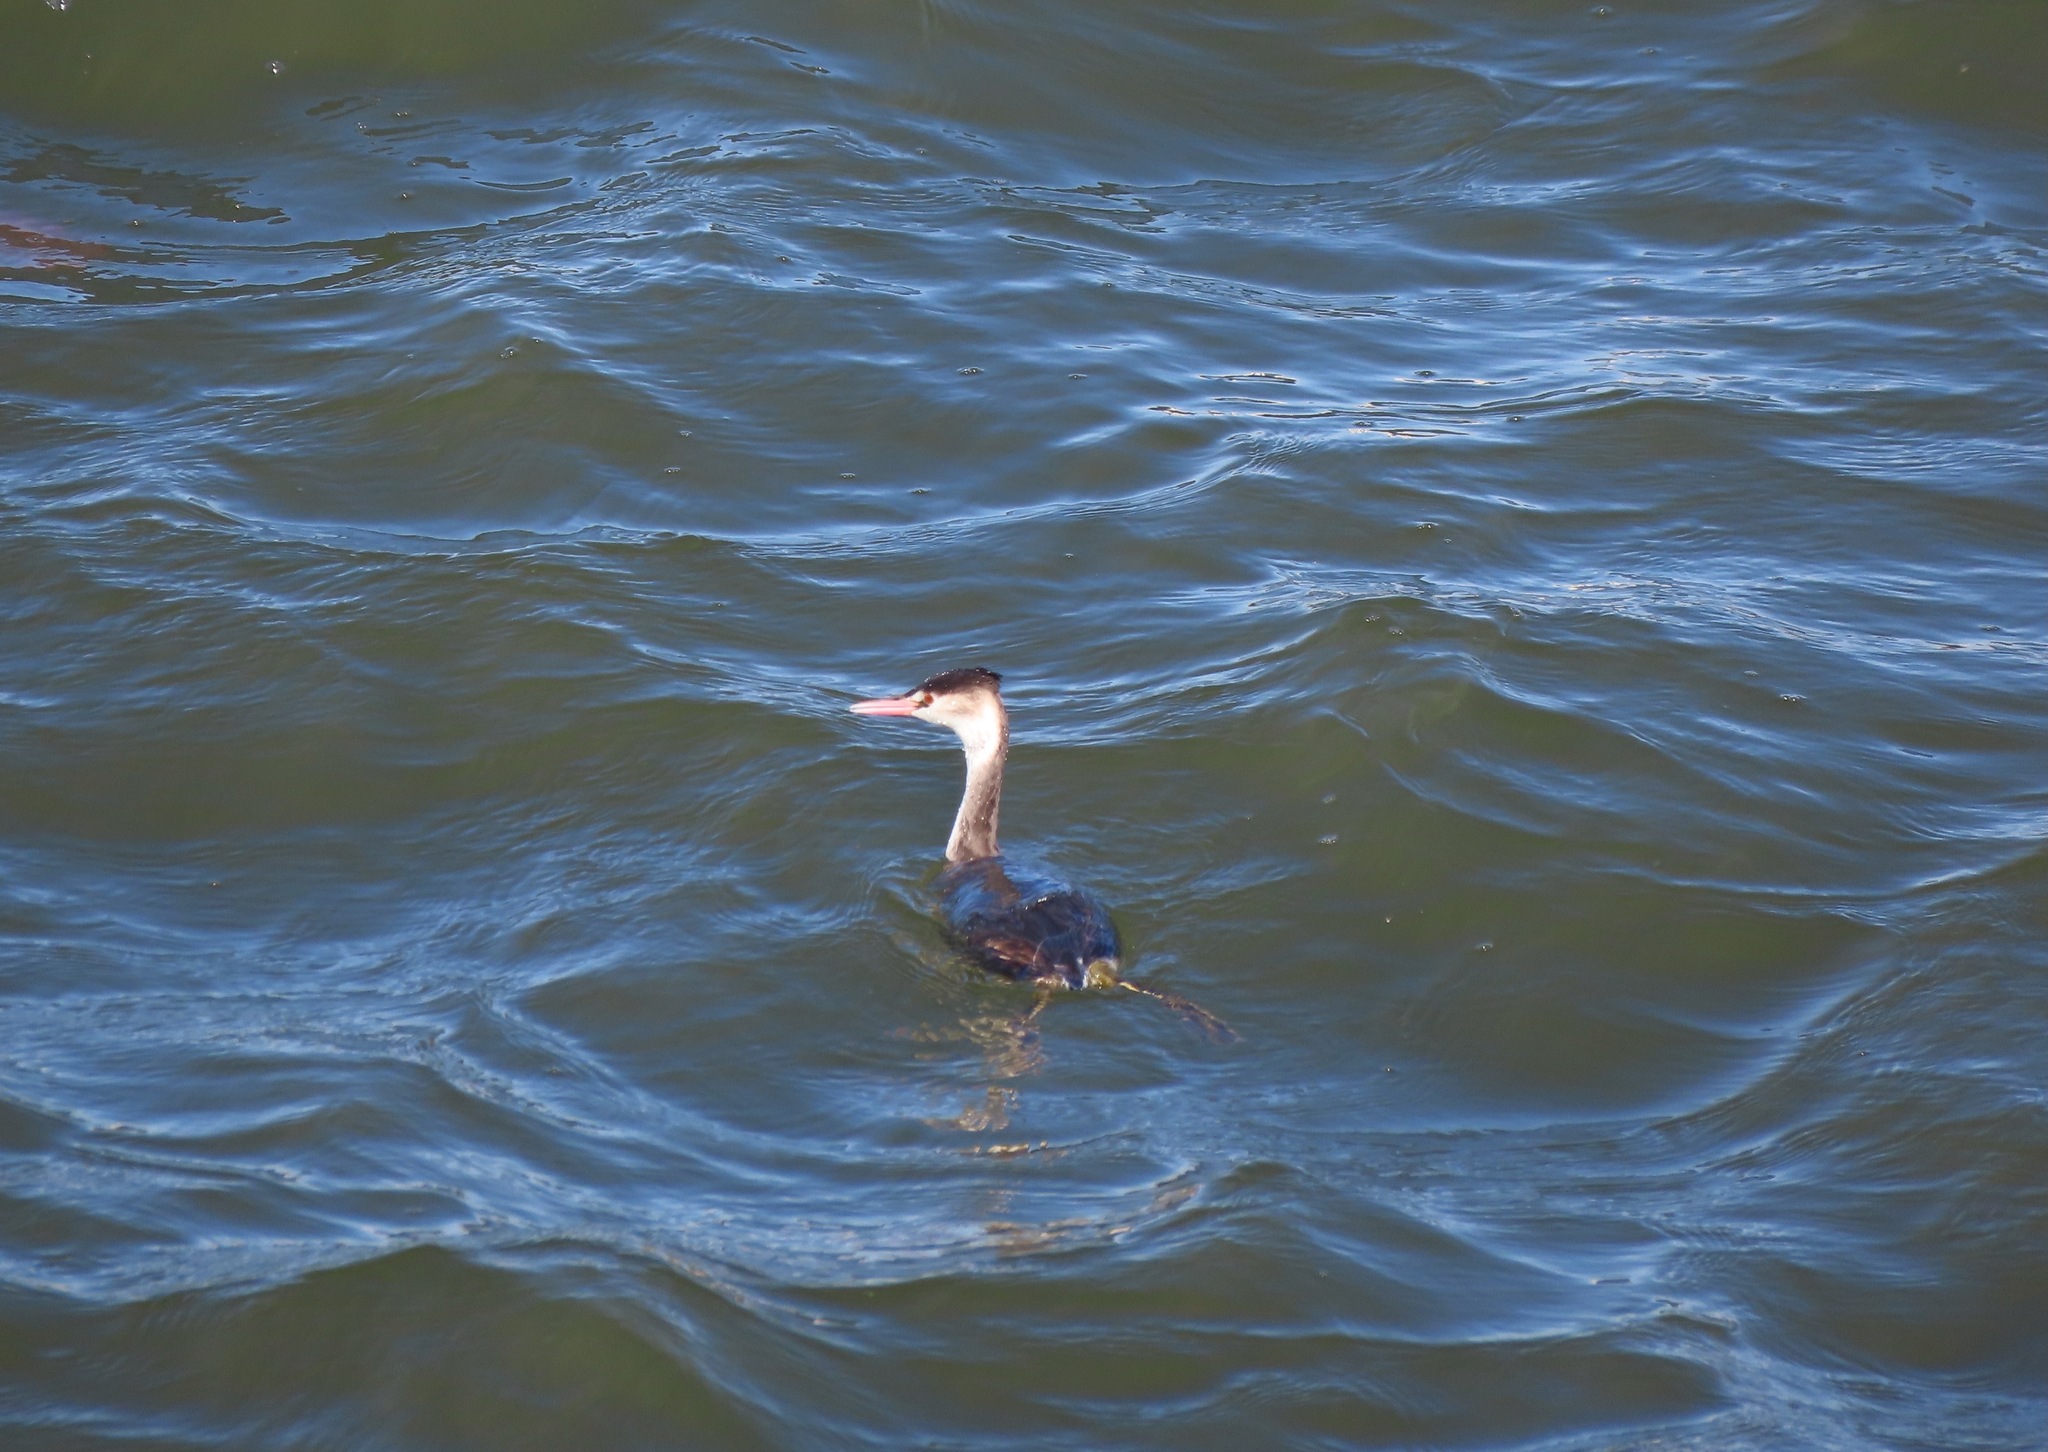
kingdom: Animalia
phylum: Chordata
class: Aves
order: Podicipediformes
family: Podicipedidae
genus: Podiceps
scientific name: Podiceps cristatus
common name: Great crested grebe
